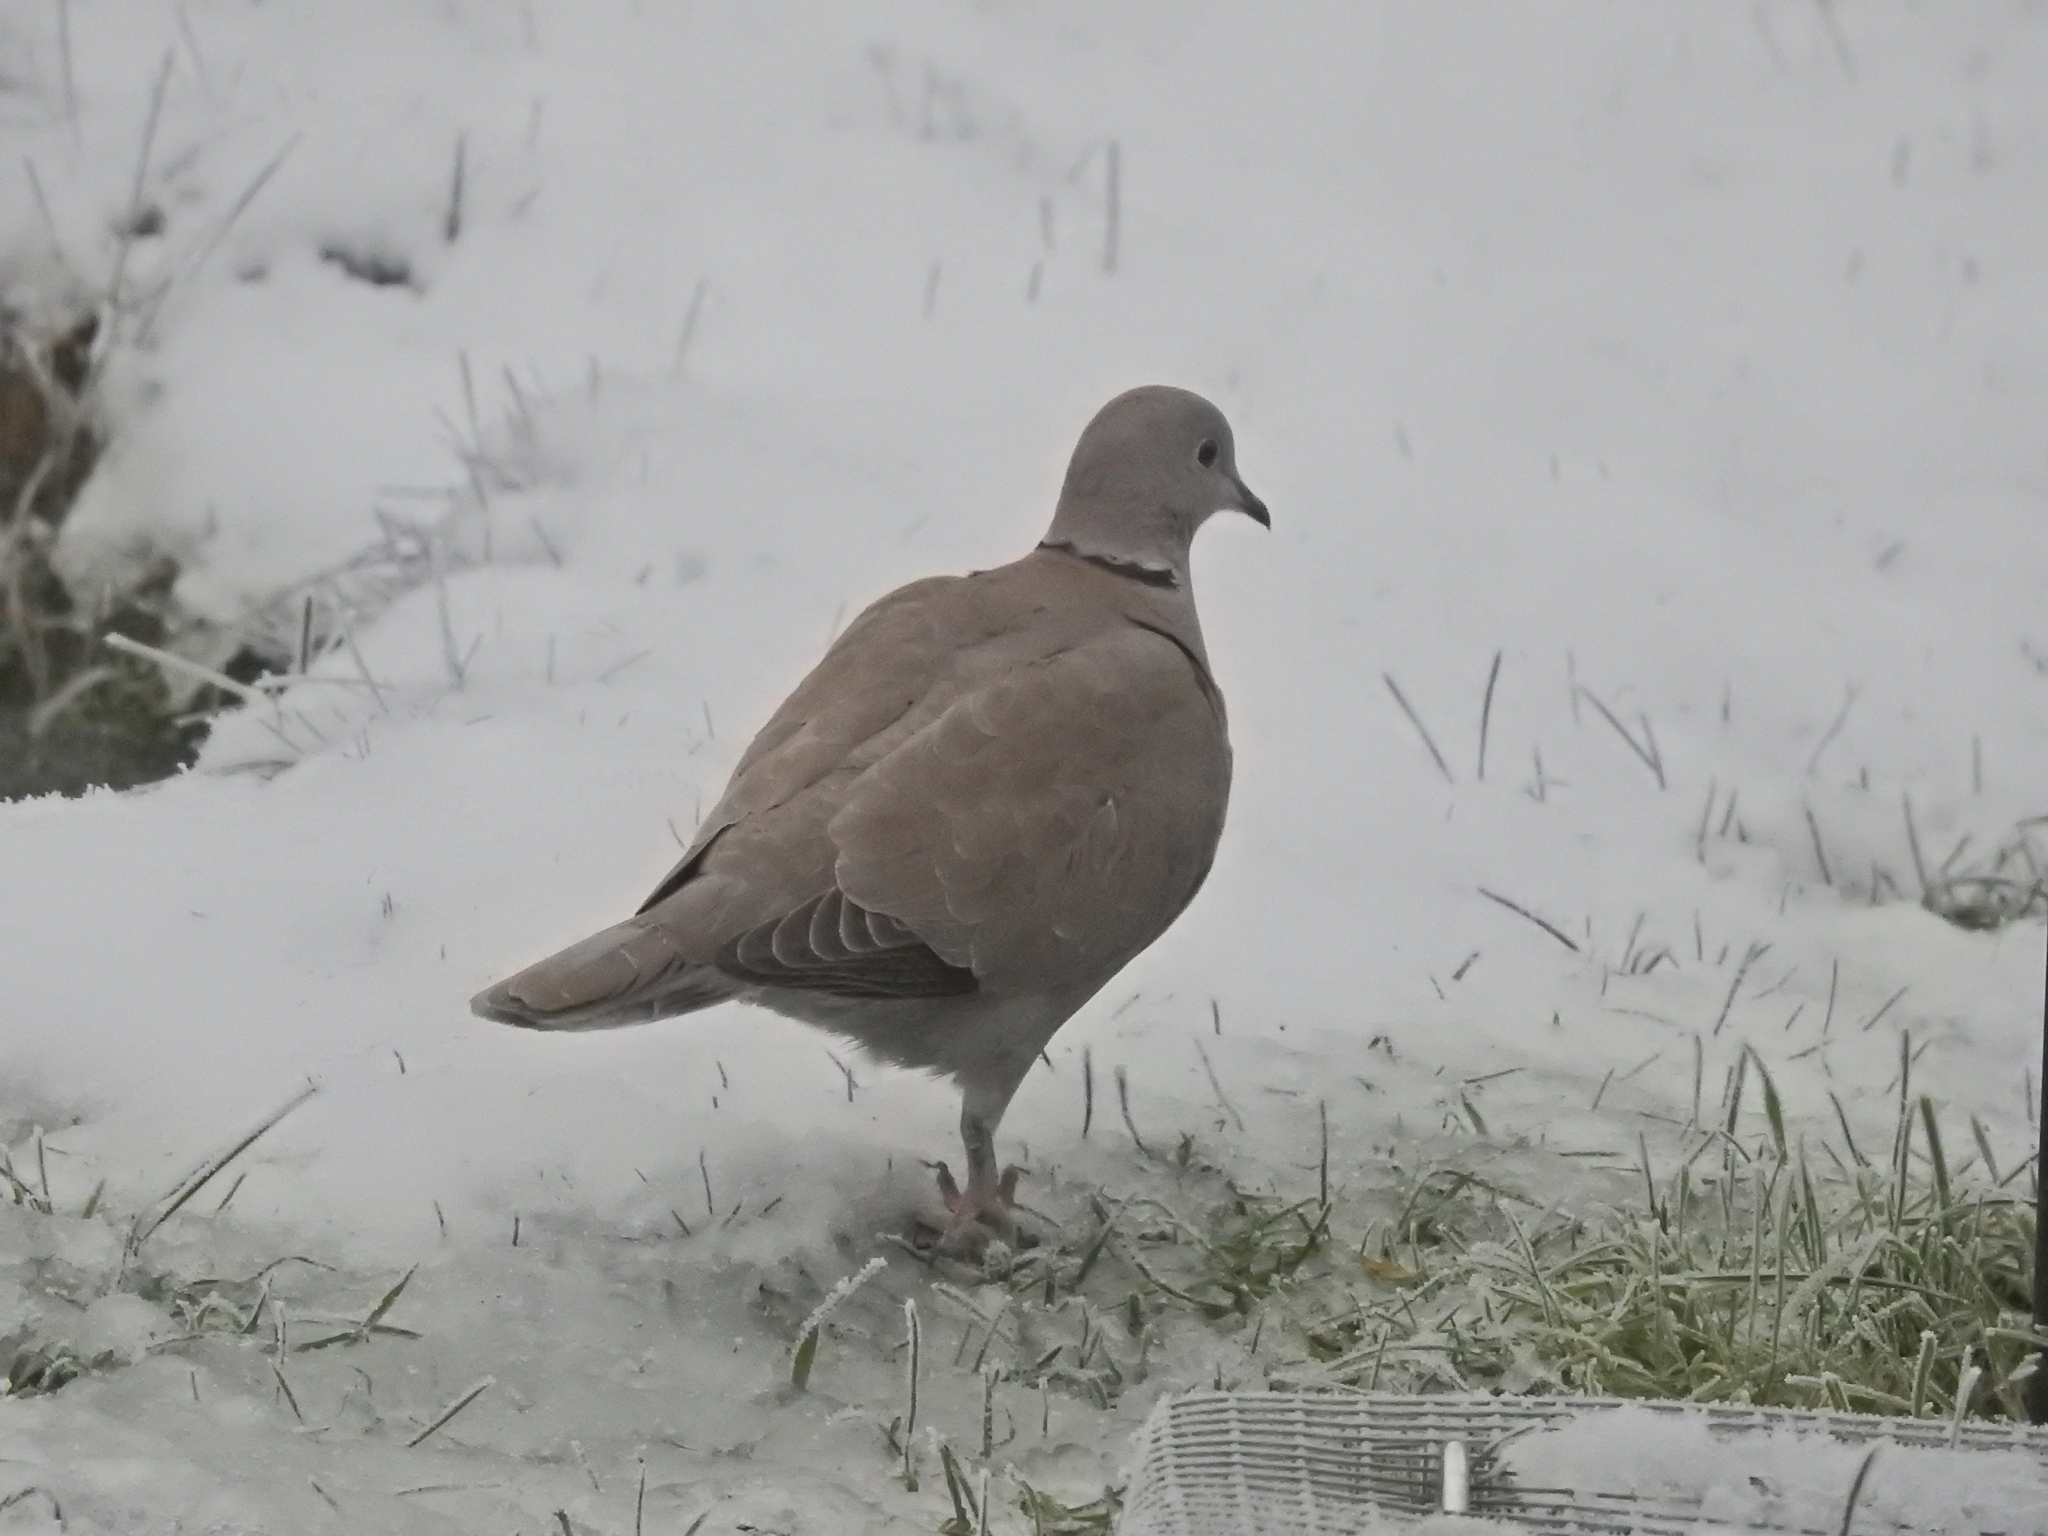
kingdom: Animalia
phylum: Chordata
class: Aves
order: Columbiformes
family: Columbidae
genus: Streptopelia
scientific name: Streptopelia decaocto
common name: Eurasian collared dove
